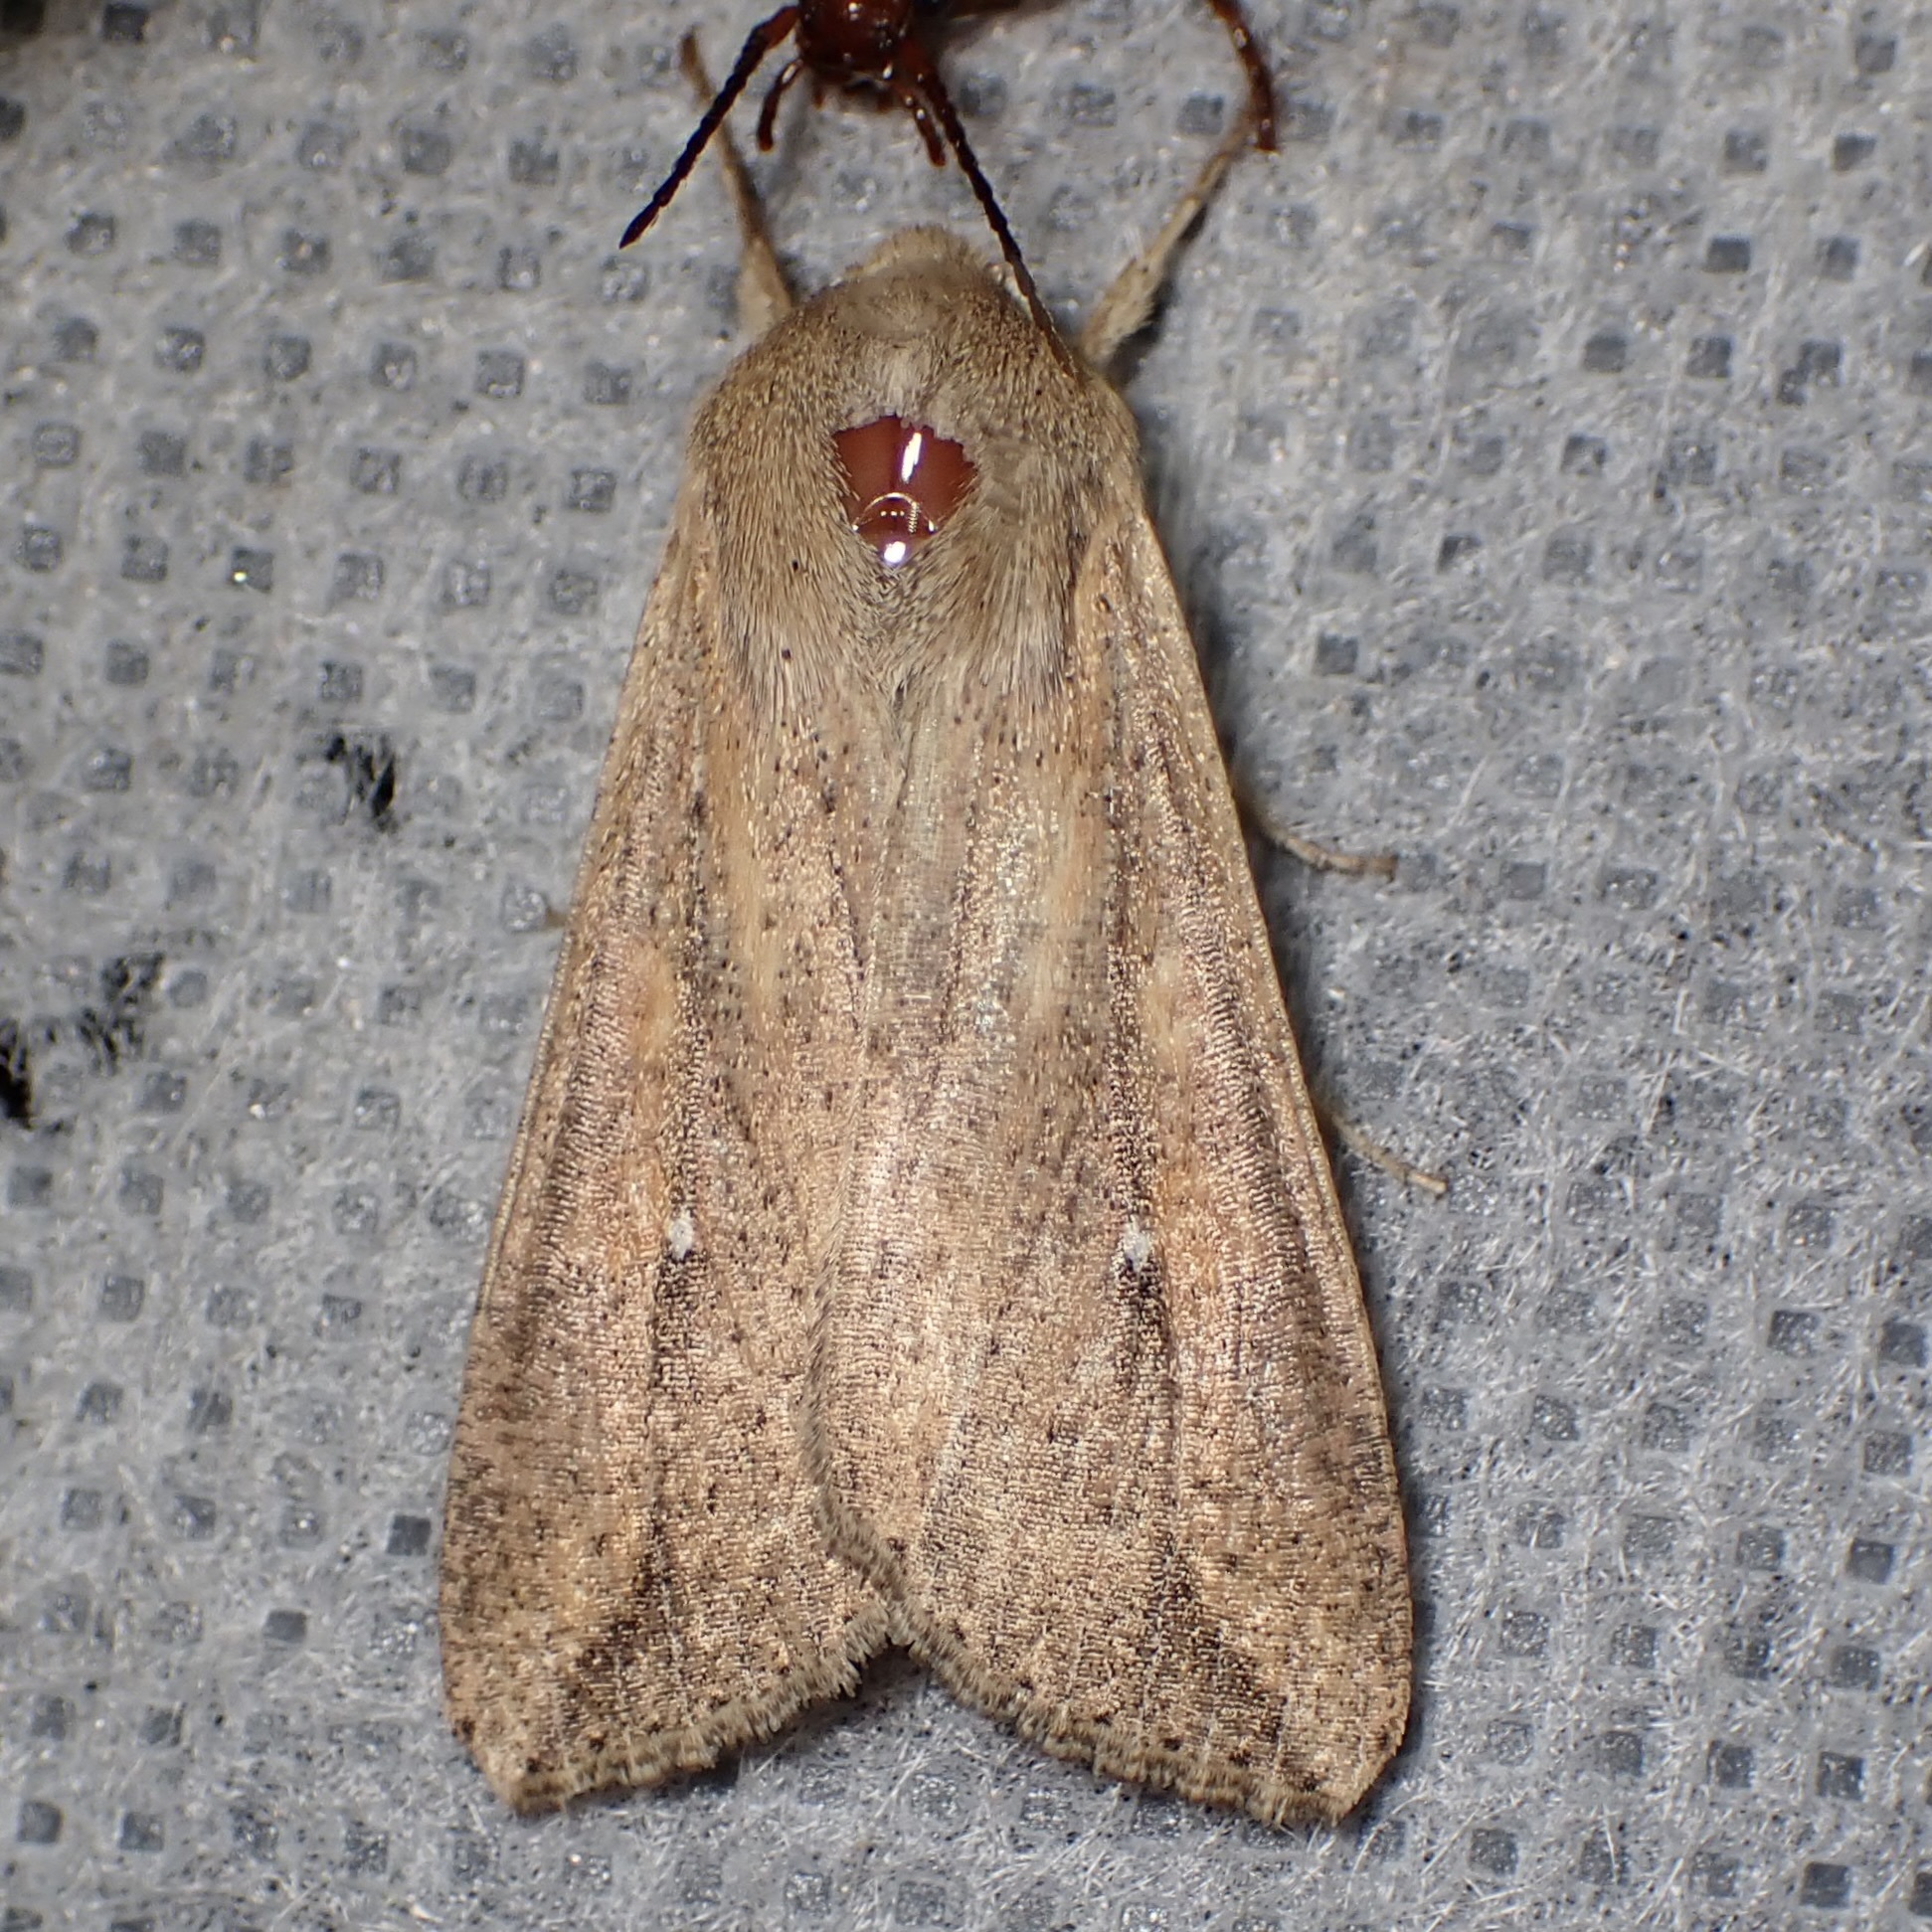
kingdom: Animalia
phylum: Arthropoda
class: Insecta
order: Lepidoptera
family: Noctuidae
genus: Mythimna
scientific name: Mythimna unipuncta
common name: White-speck
